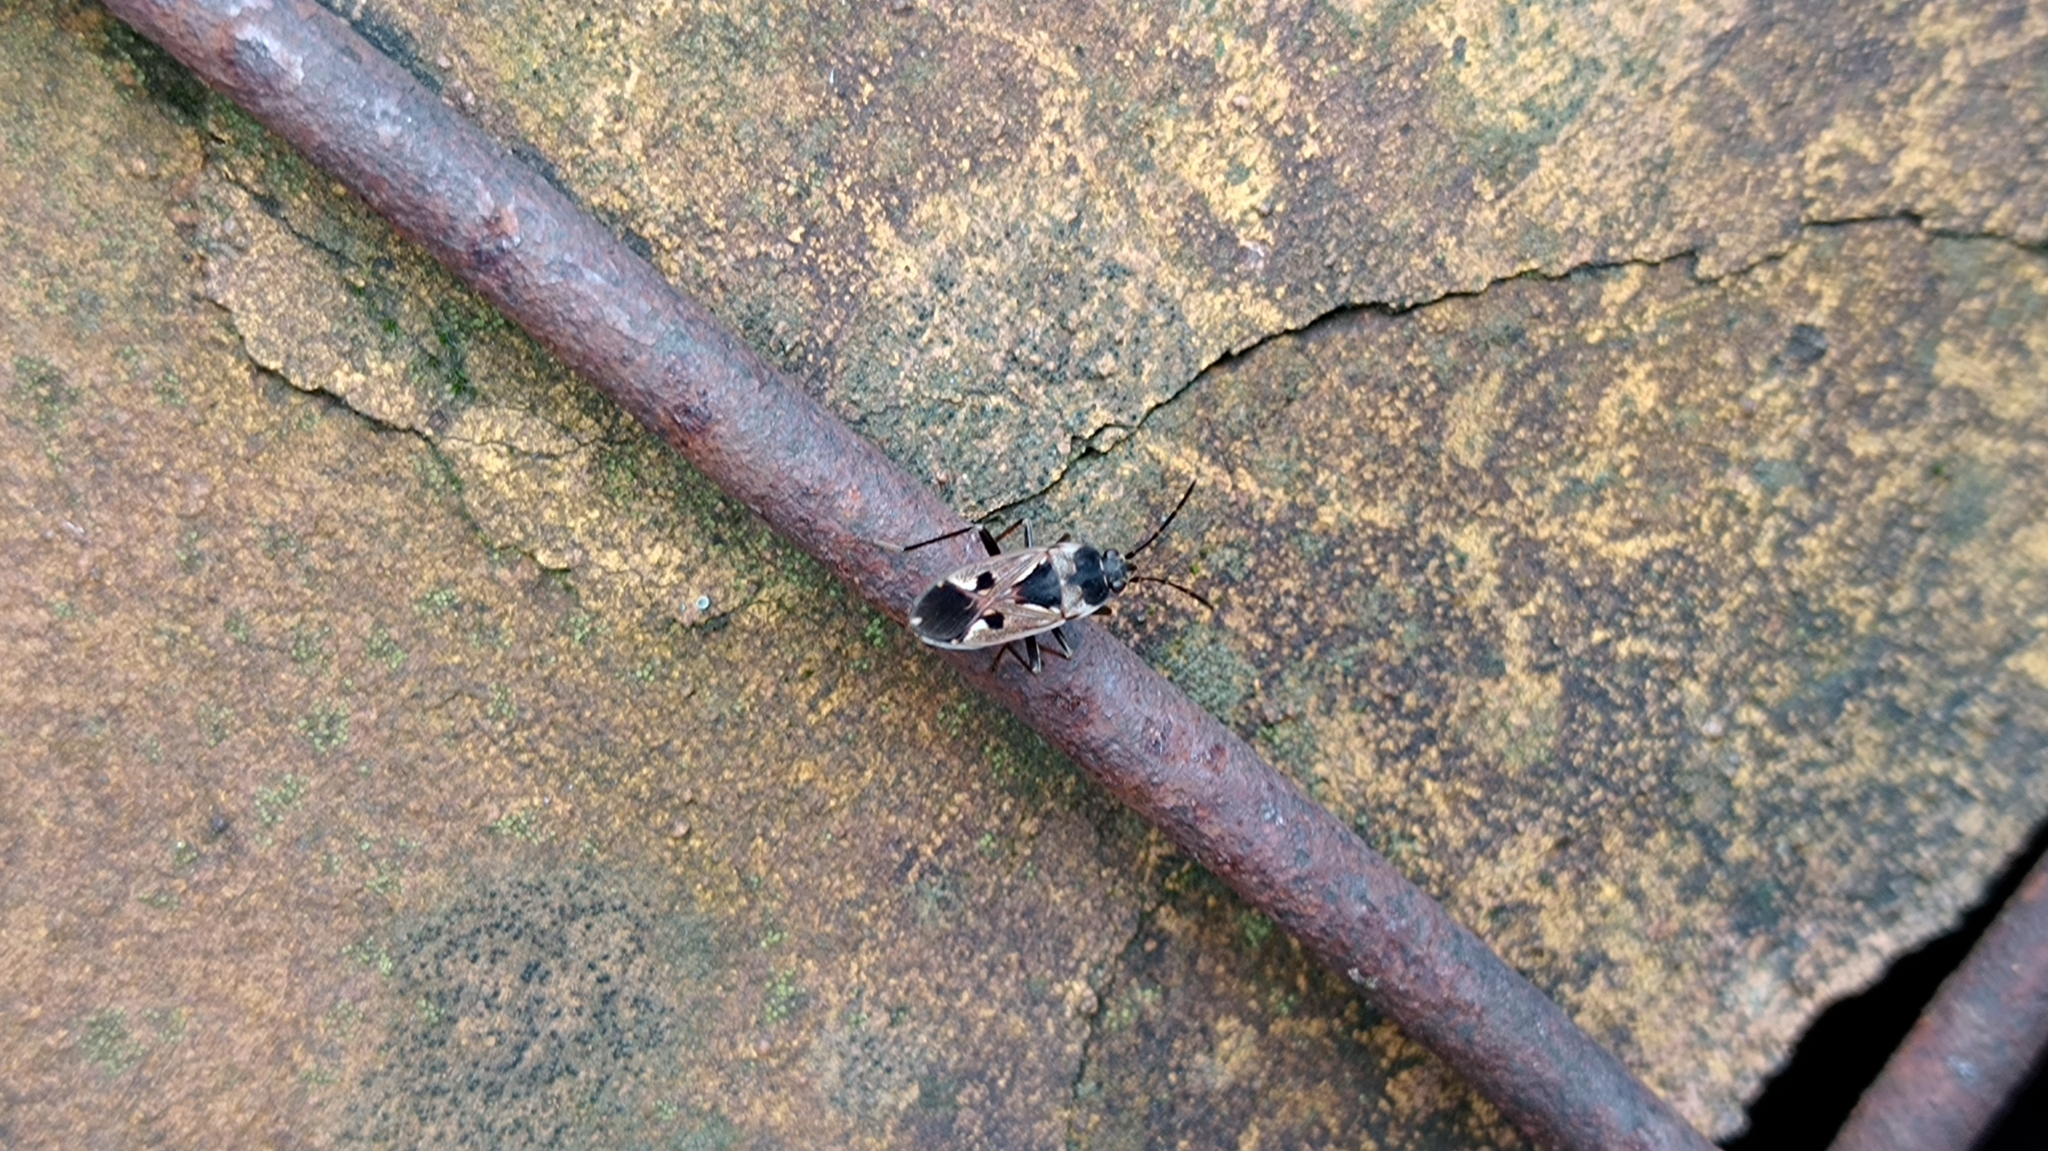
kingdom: Animalia
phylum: Arthropoda
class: Insecta
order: Hemiptera
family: Rhyparochromidae
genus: Rhyparochromus
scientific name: Rhyparochromus vulgaris
